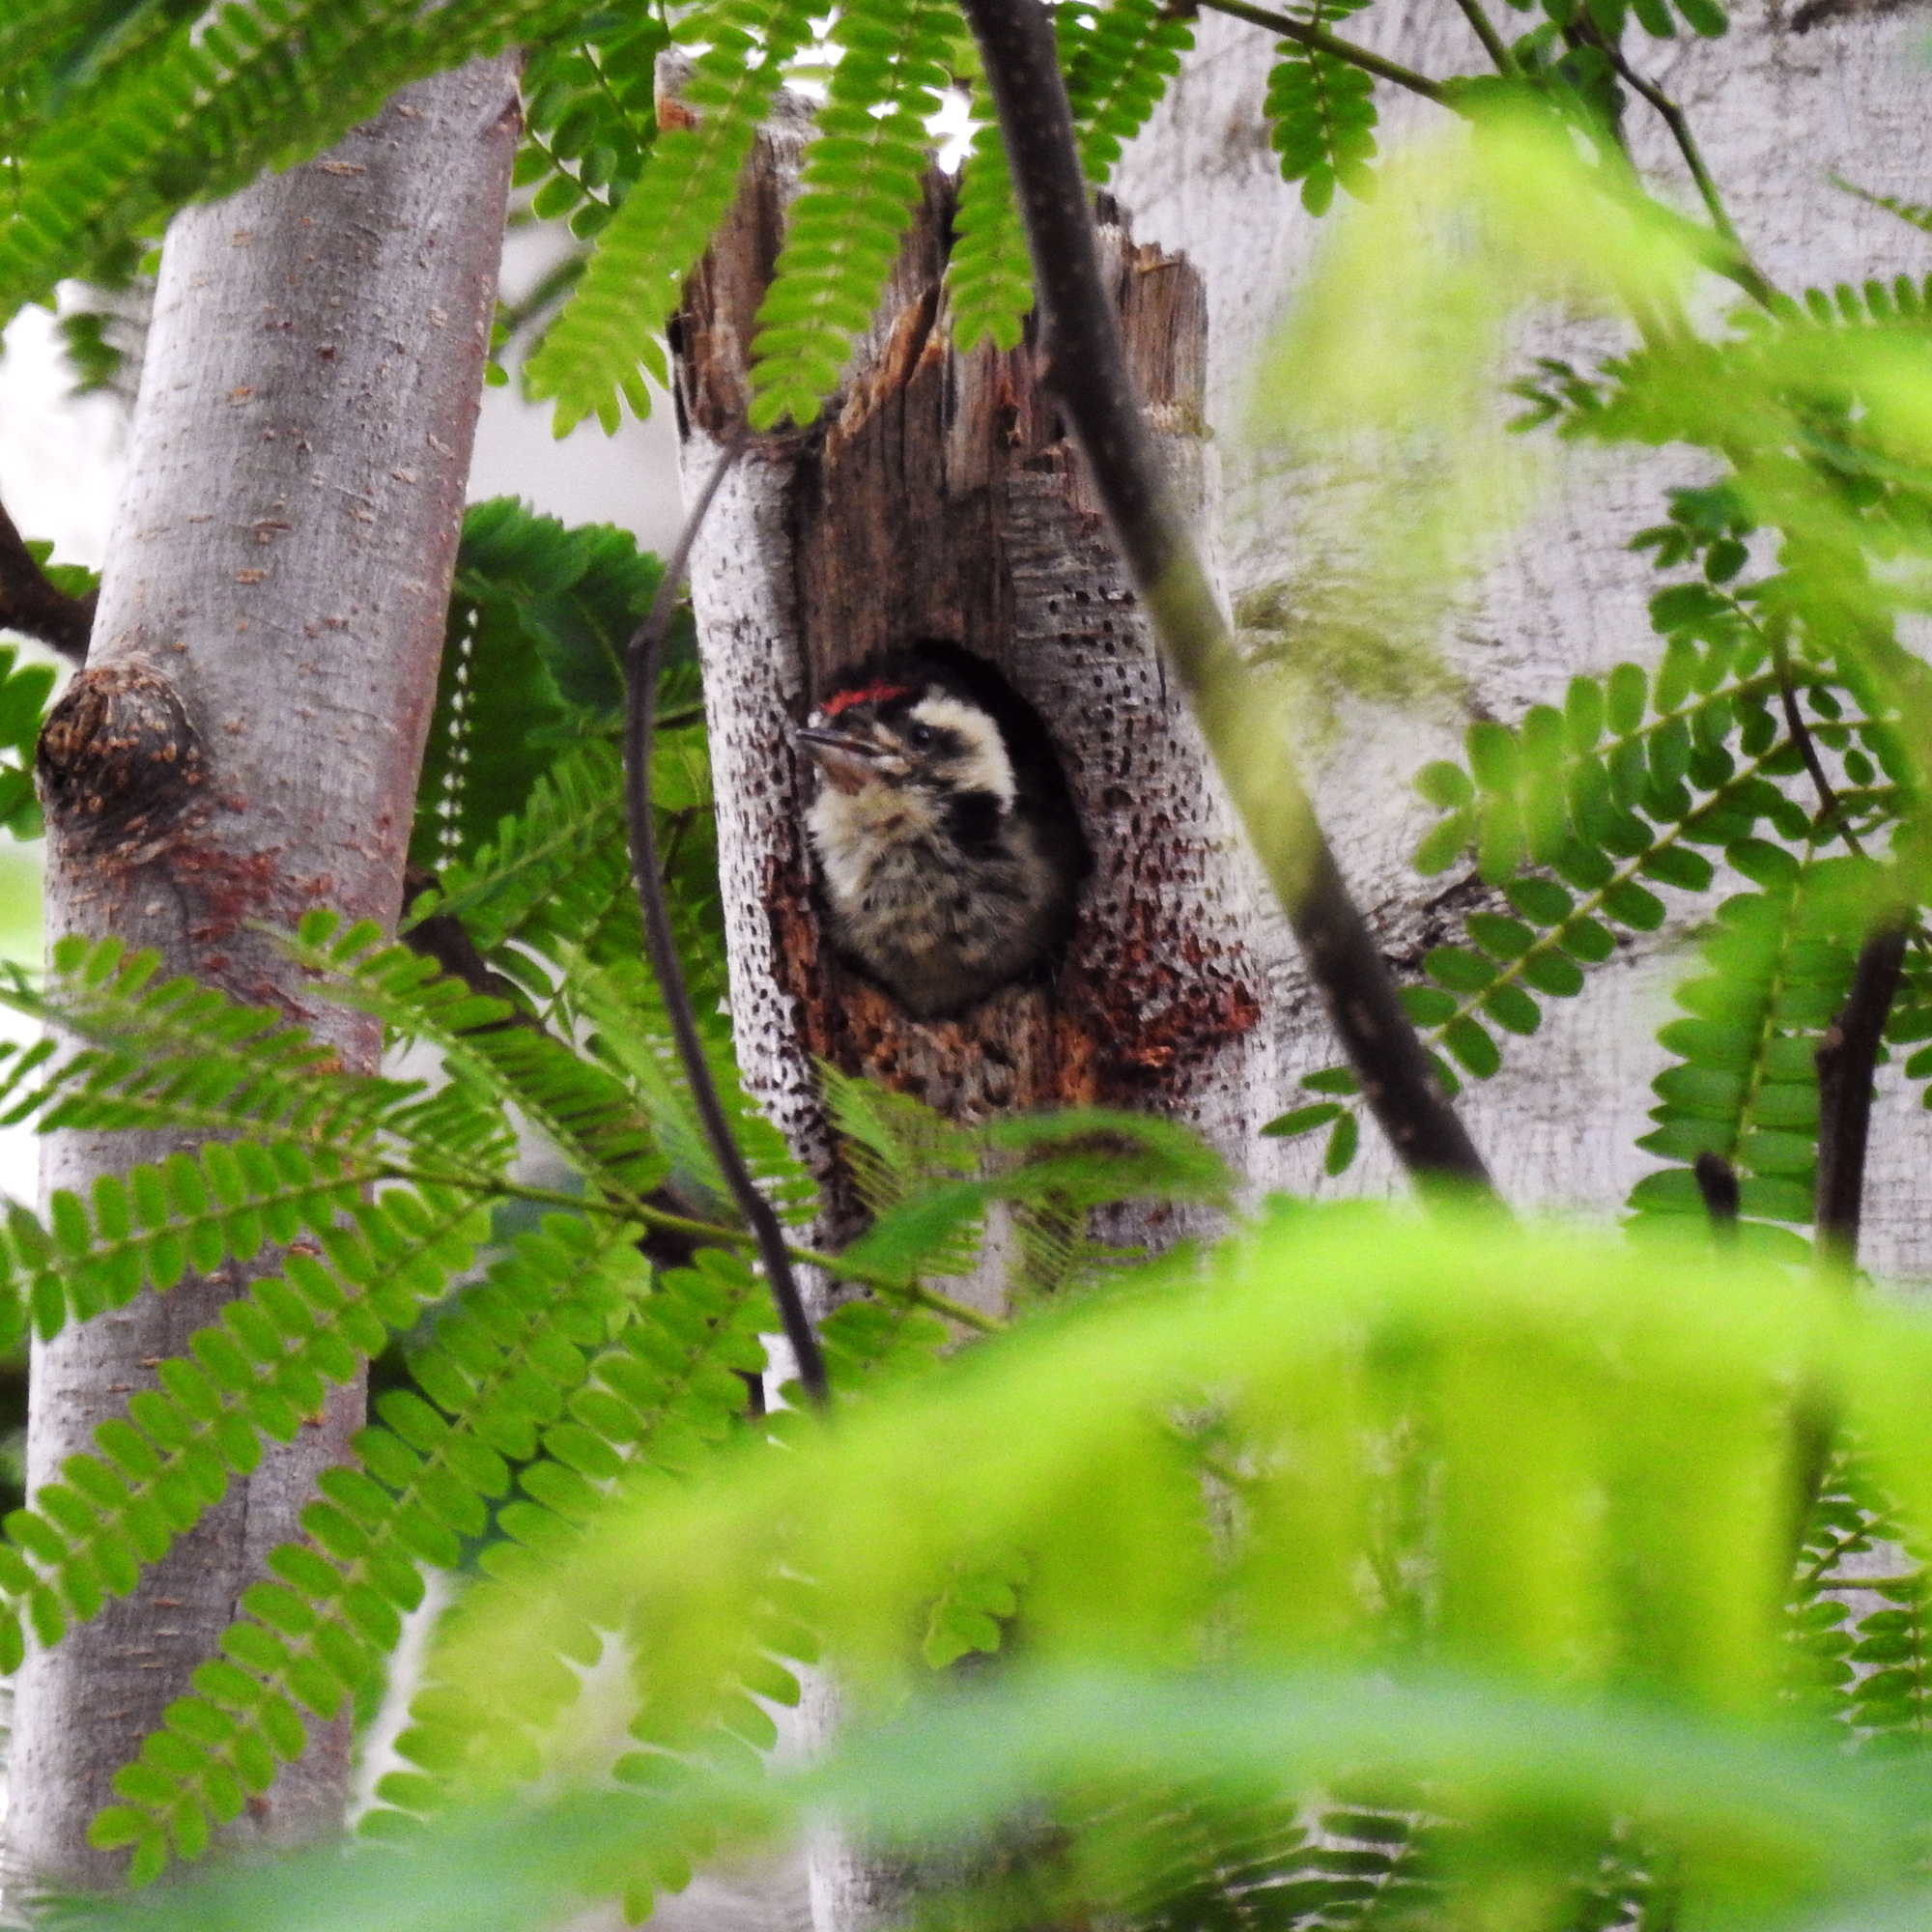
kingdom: Animalia
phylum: Chordata
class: Aves
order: Piciformes
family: Picidae
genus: Dendrocopos
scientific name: Dendrocopos analis
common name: Freckle-breasted woodpecker
